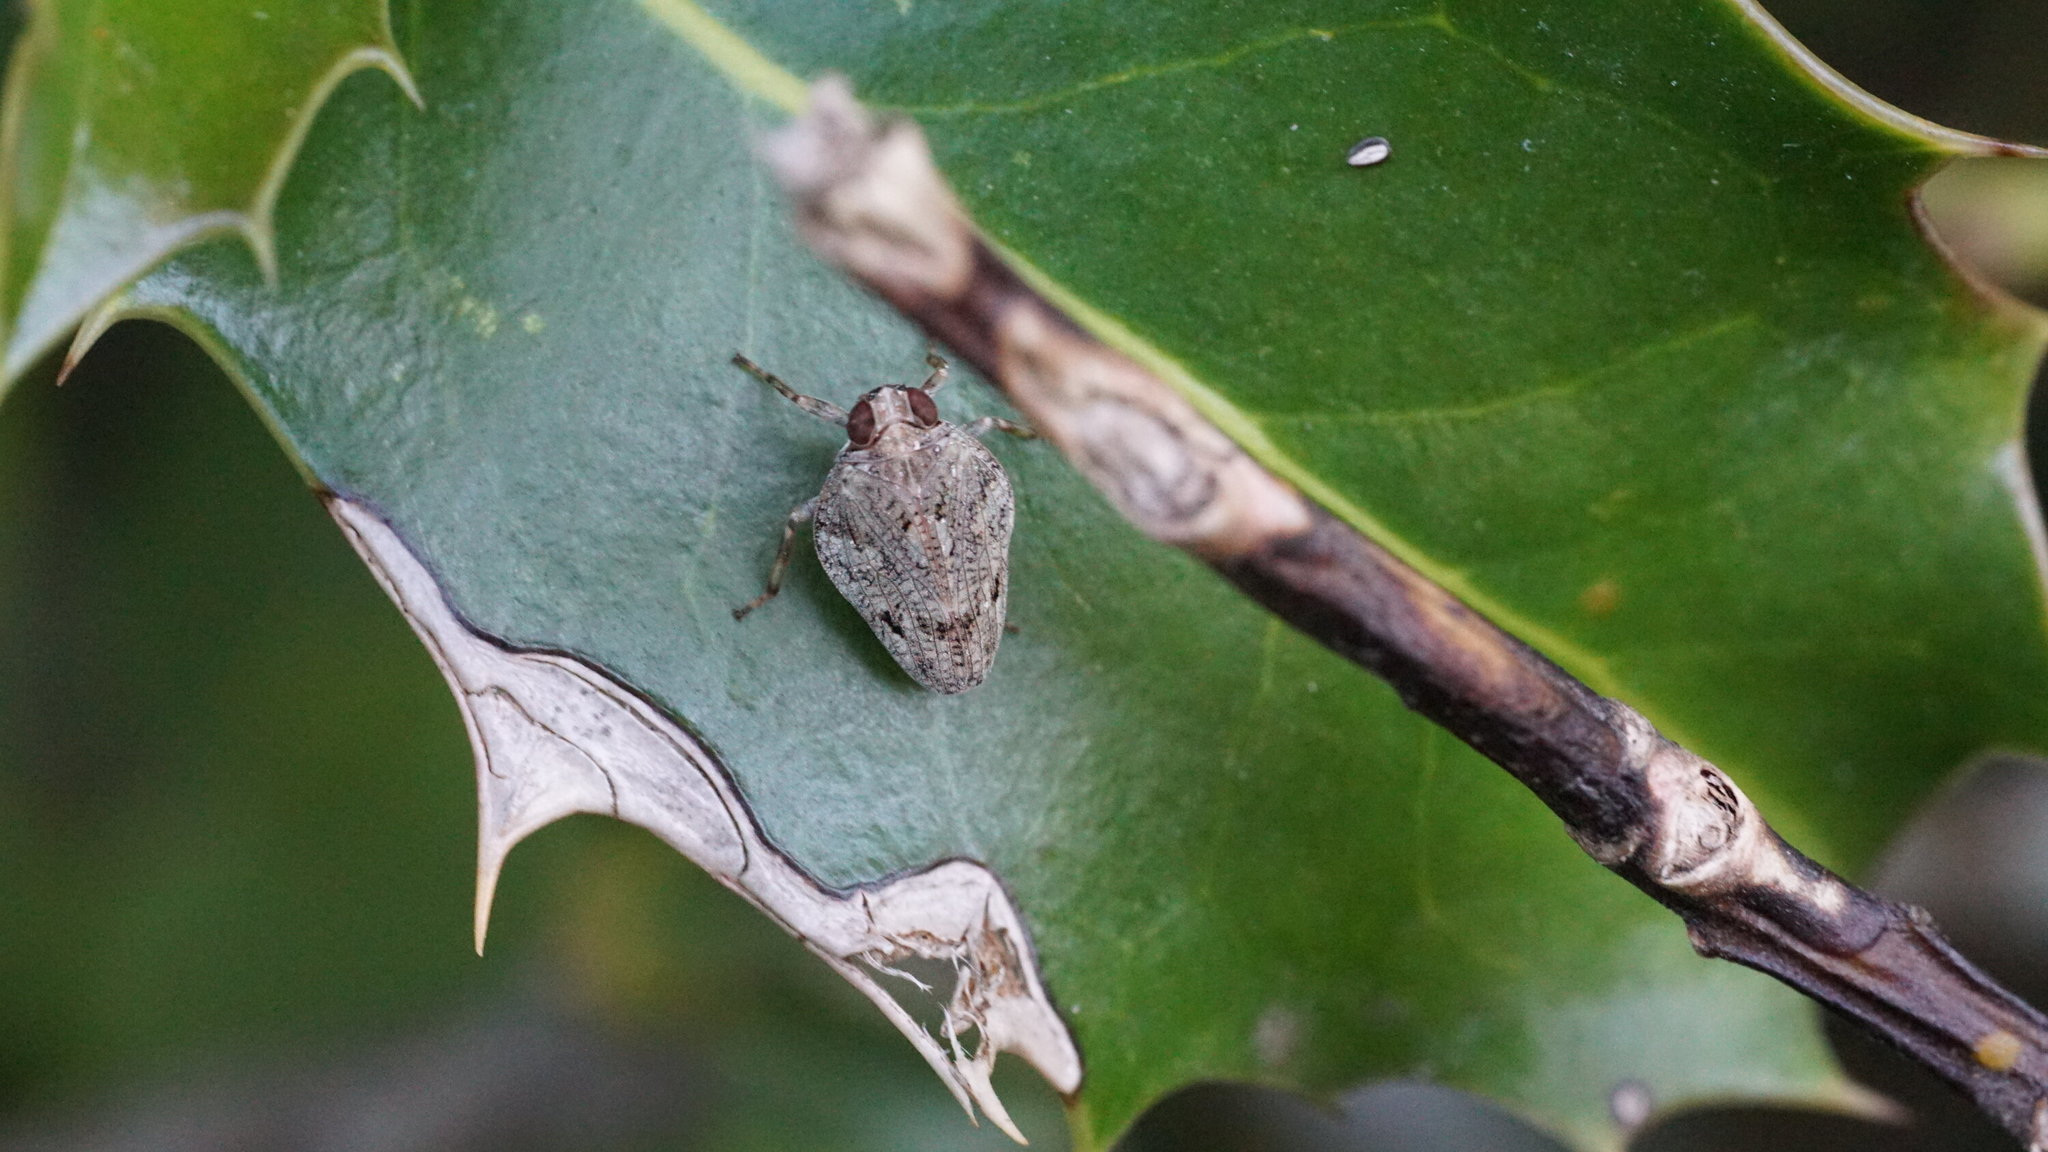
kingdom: Animalia
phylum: Arthropoda
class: Insecta
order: Hemiptera
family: Issidae
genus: Issus
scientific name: Issus coleoptratus
